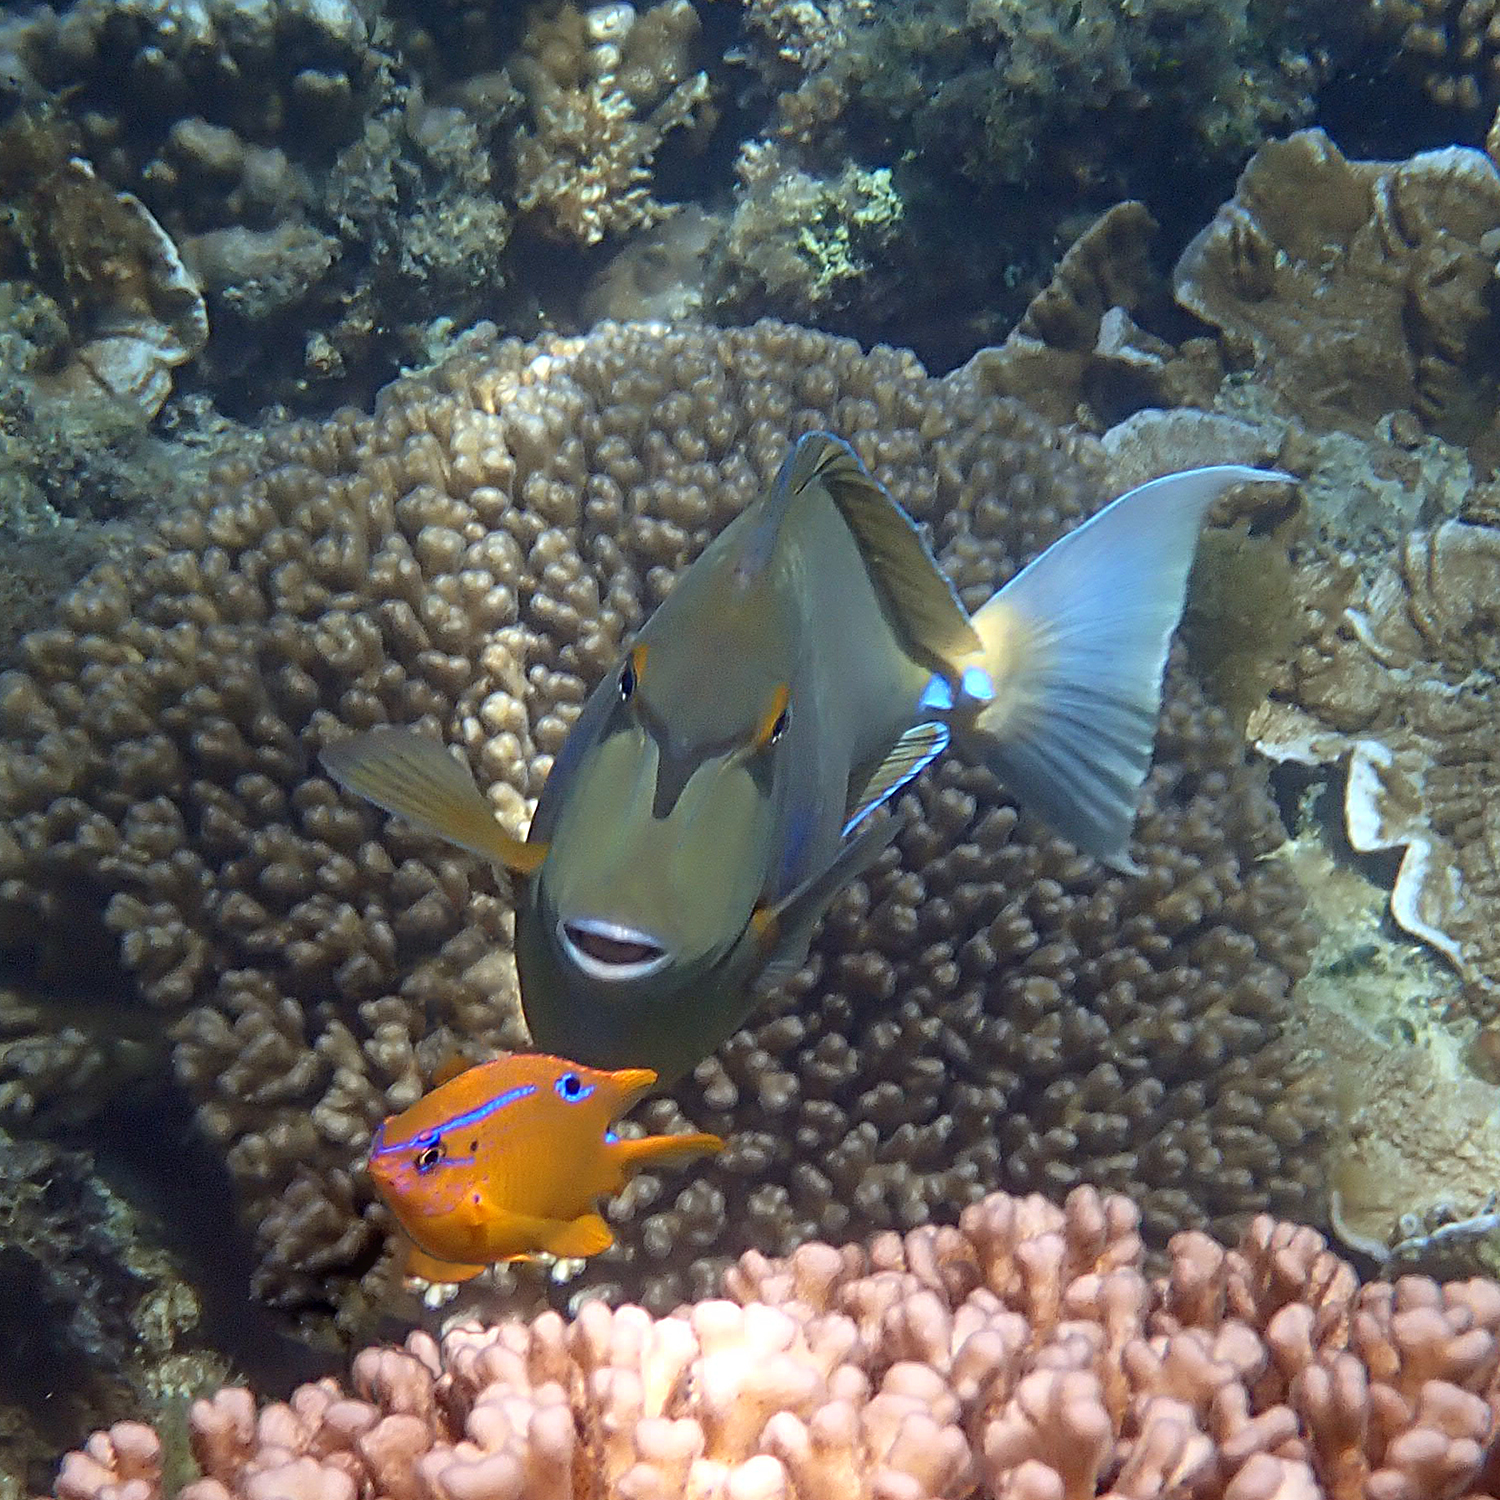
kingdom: Animalia
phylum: Chordata
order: Perciformes
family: Acanthuridae
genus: Naso
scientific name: Naso unicornis
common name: Bluespine unicornfish
